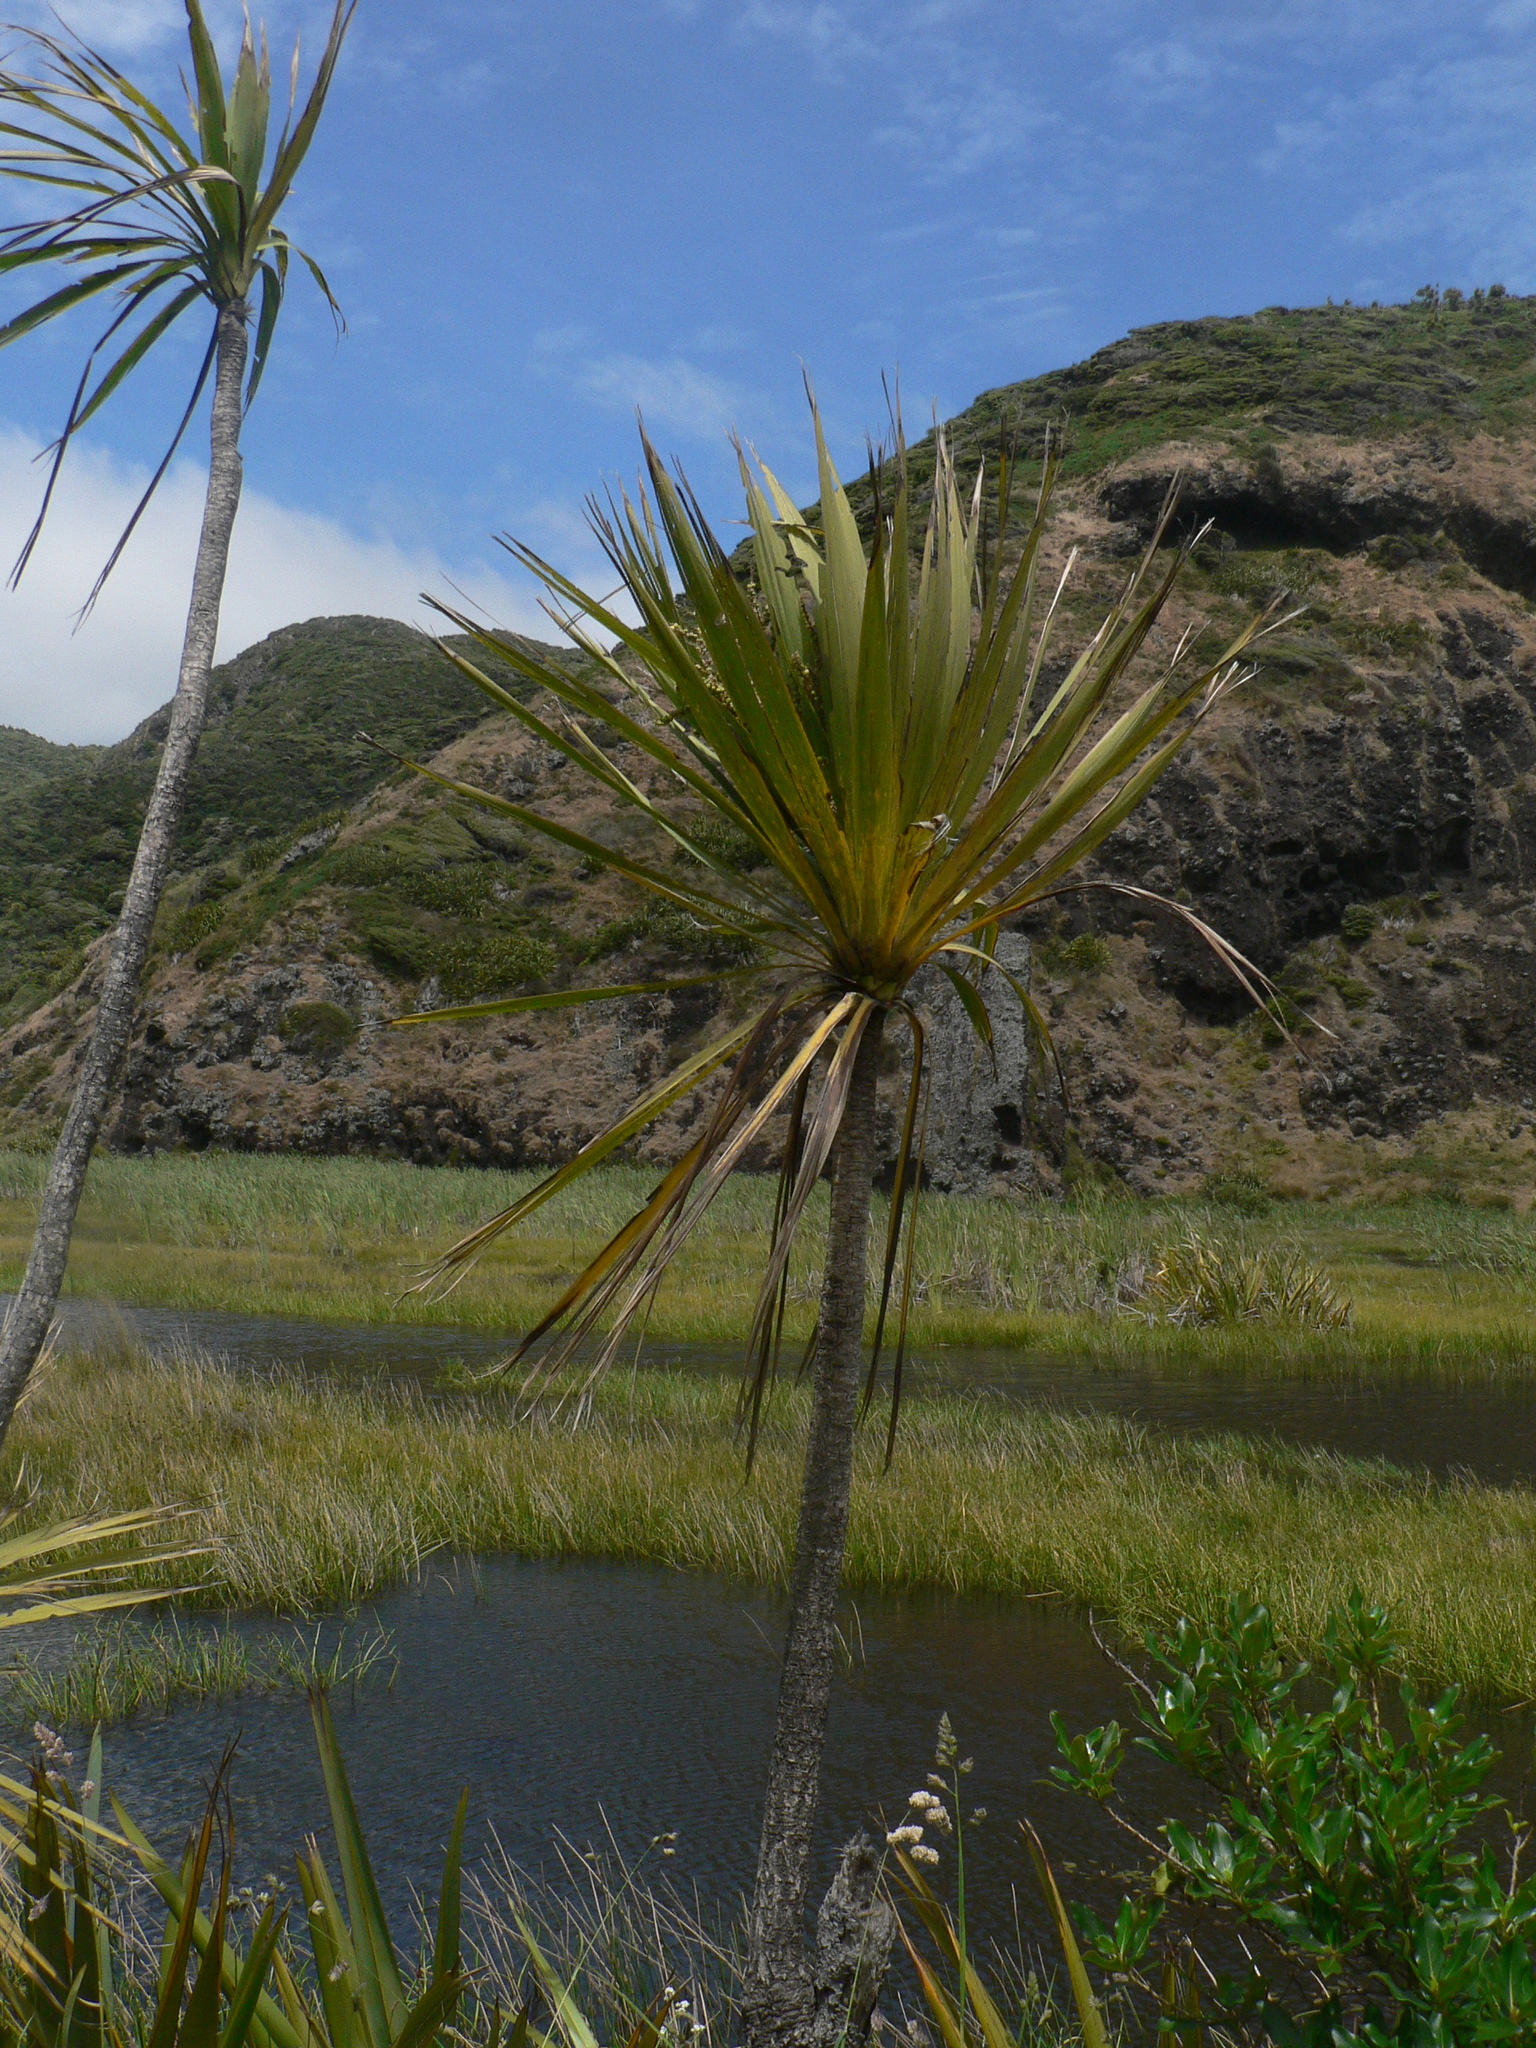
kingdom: Plantae
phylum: Tracheophyta
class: Liliopsida
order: Asparagales
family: Asparagaceae
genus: Cordyline
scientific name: Cordyline australis
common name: Cabbage-palm
